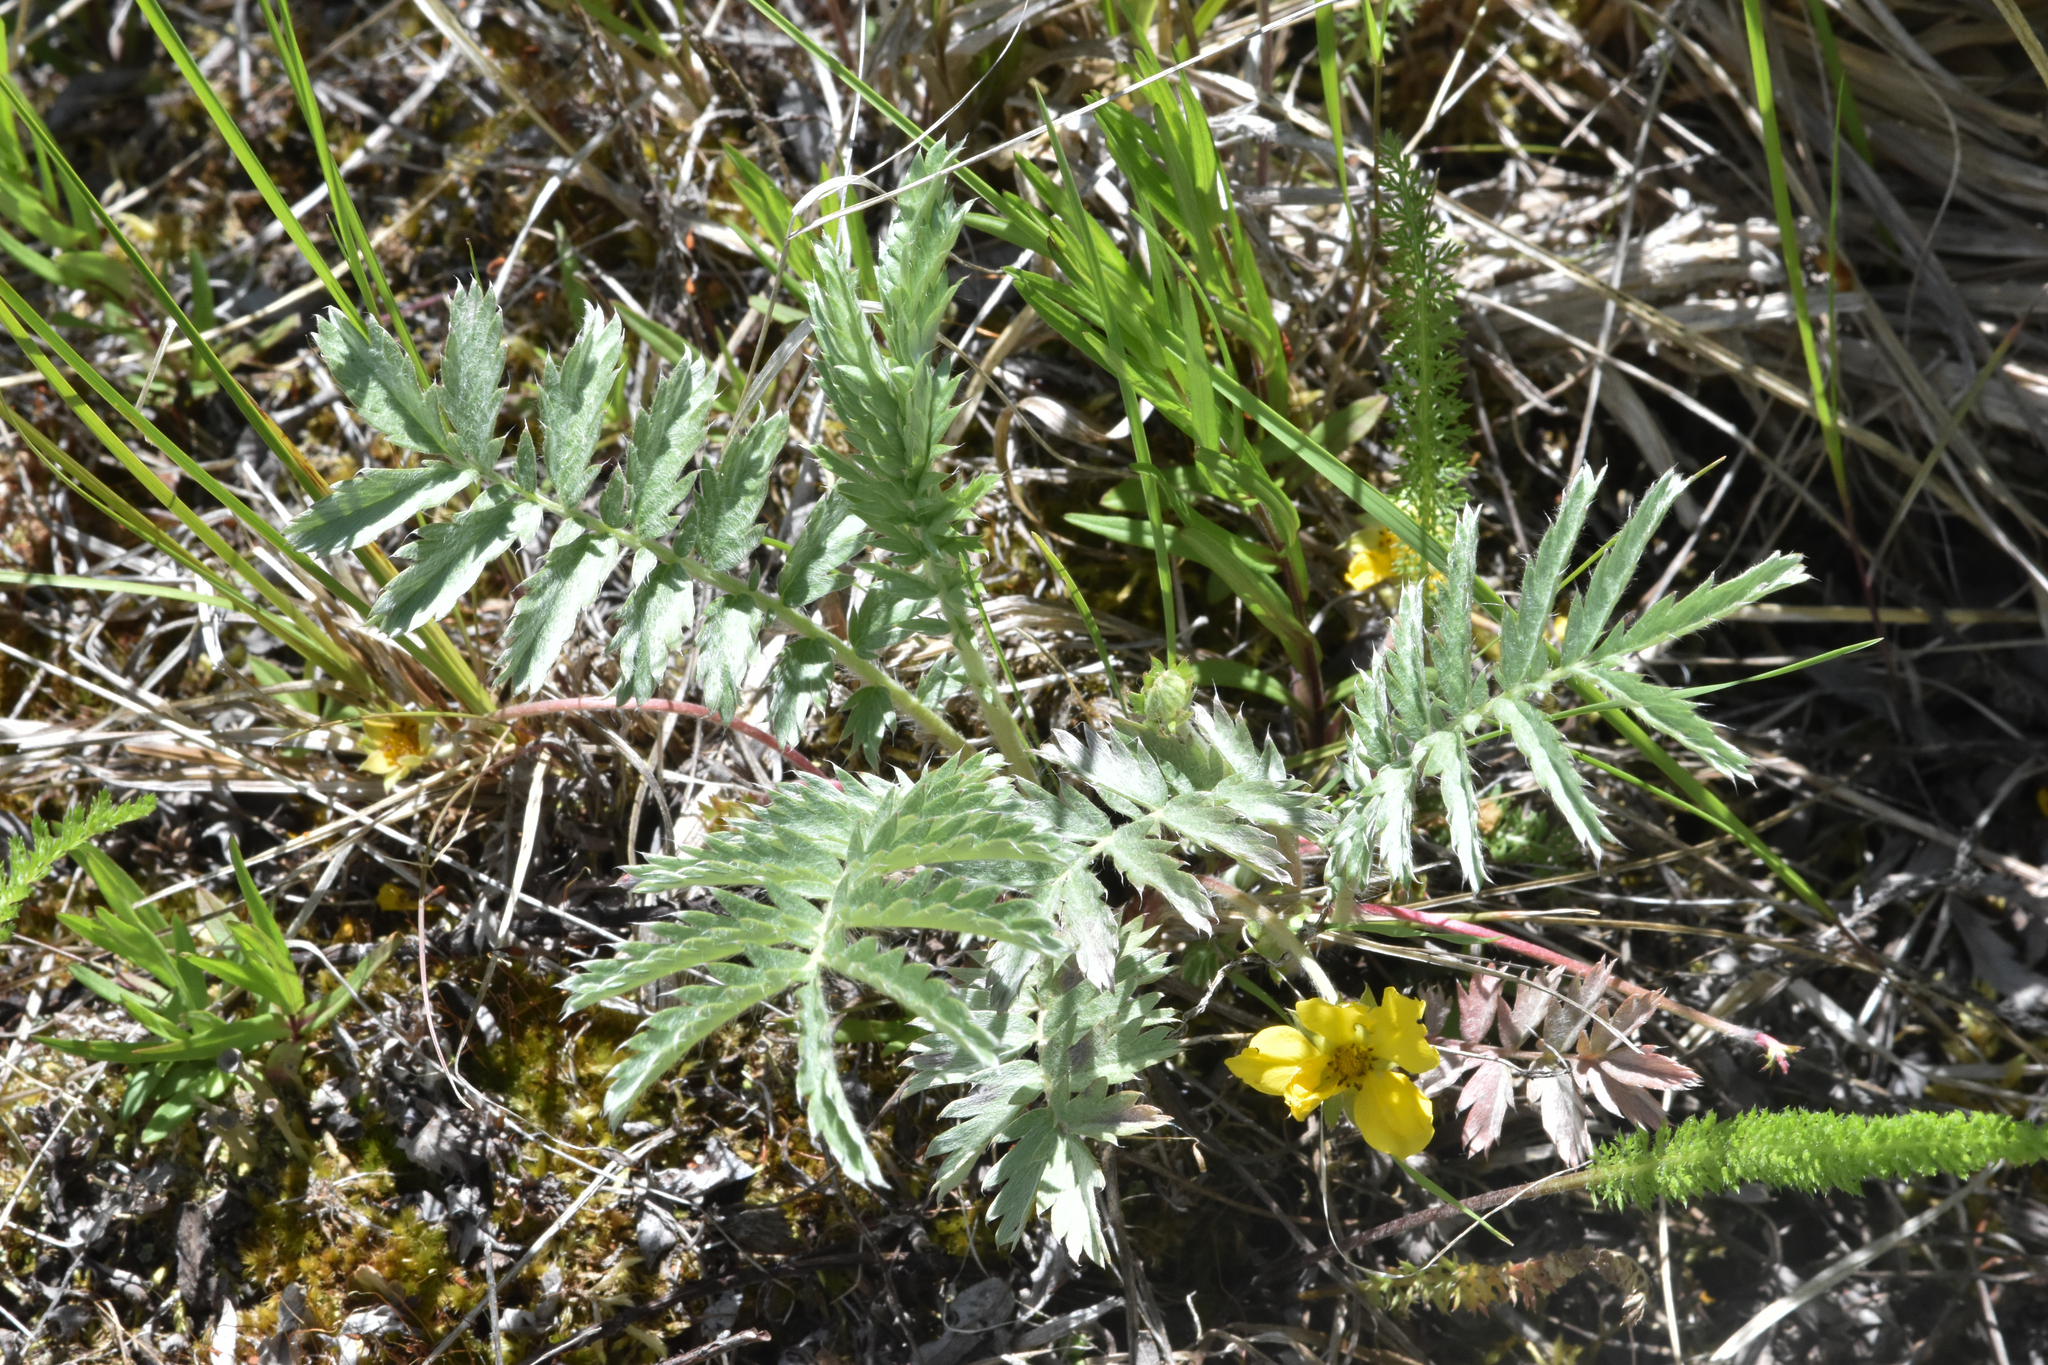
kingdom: Plantae
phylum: Tracheophyta
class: Magnoliopsida
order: Rosales
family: Rosaceae
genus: Argentina
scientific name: Argentina anserina
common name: Common silverweed
